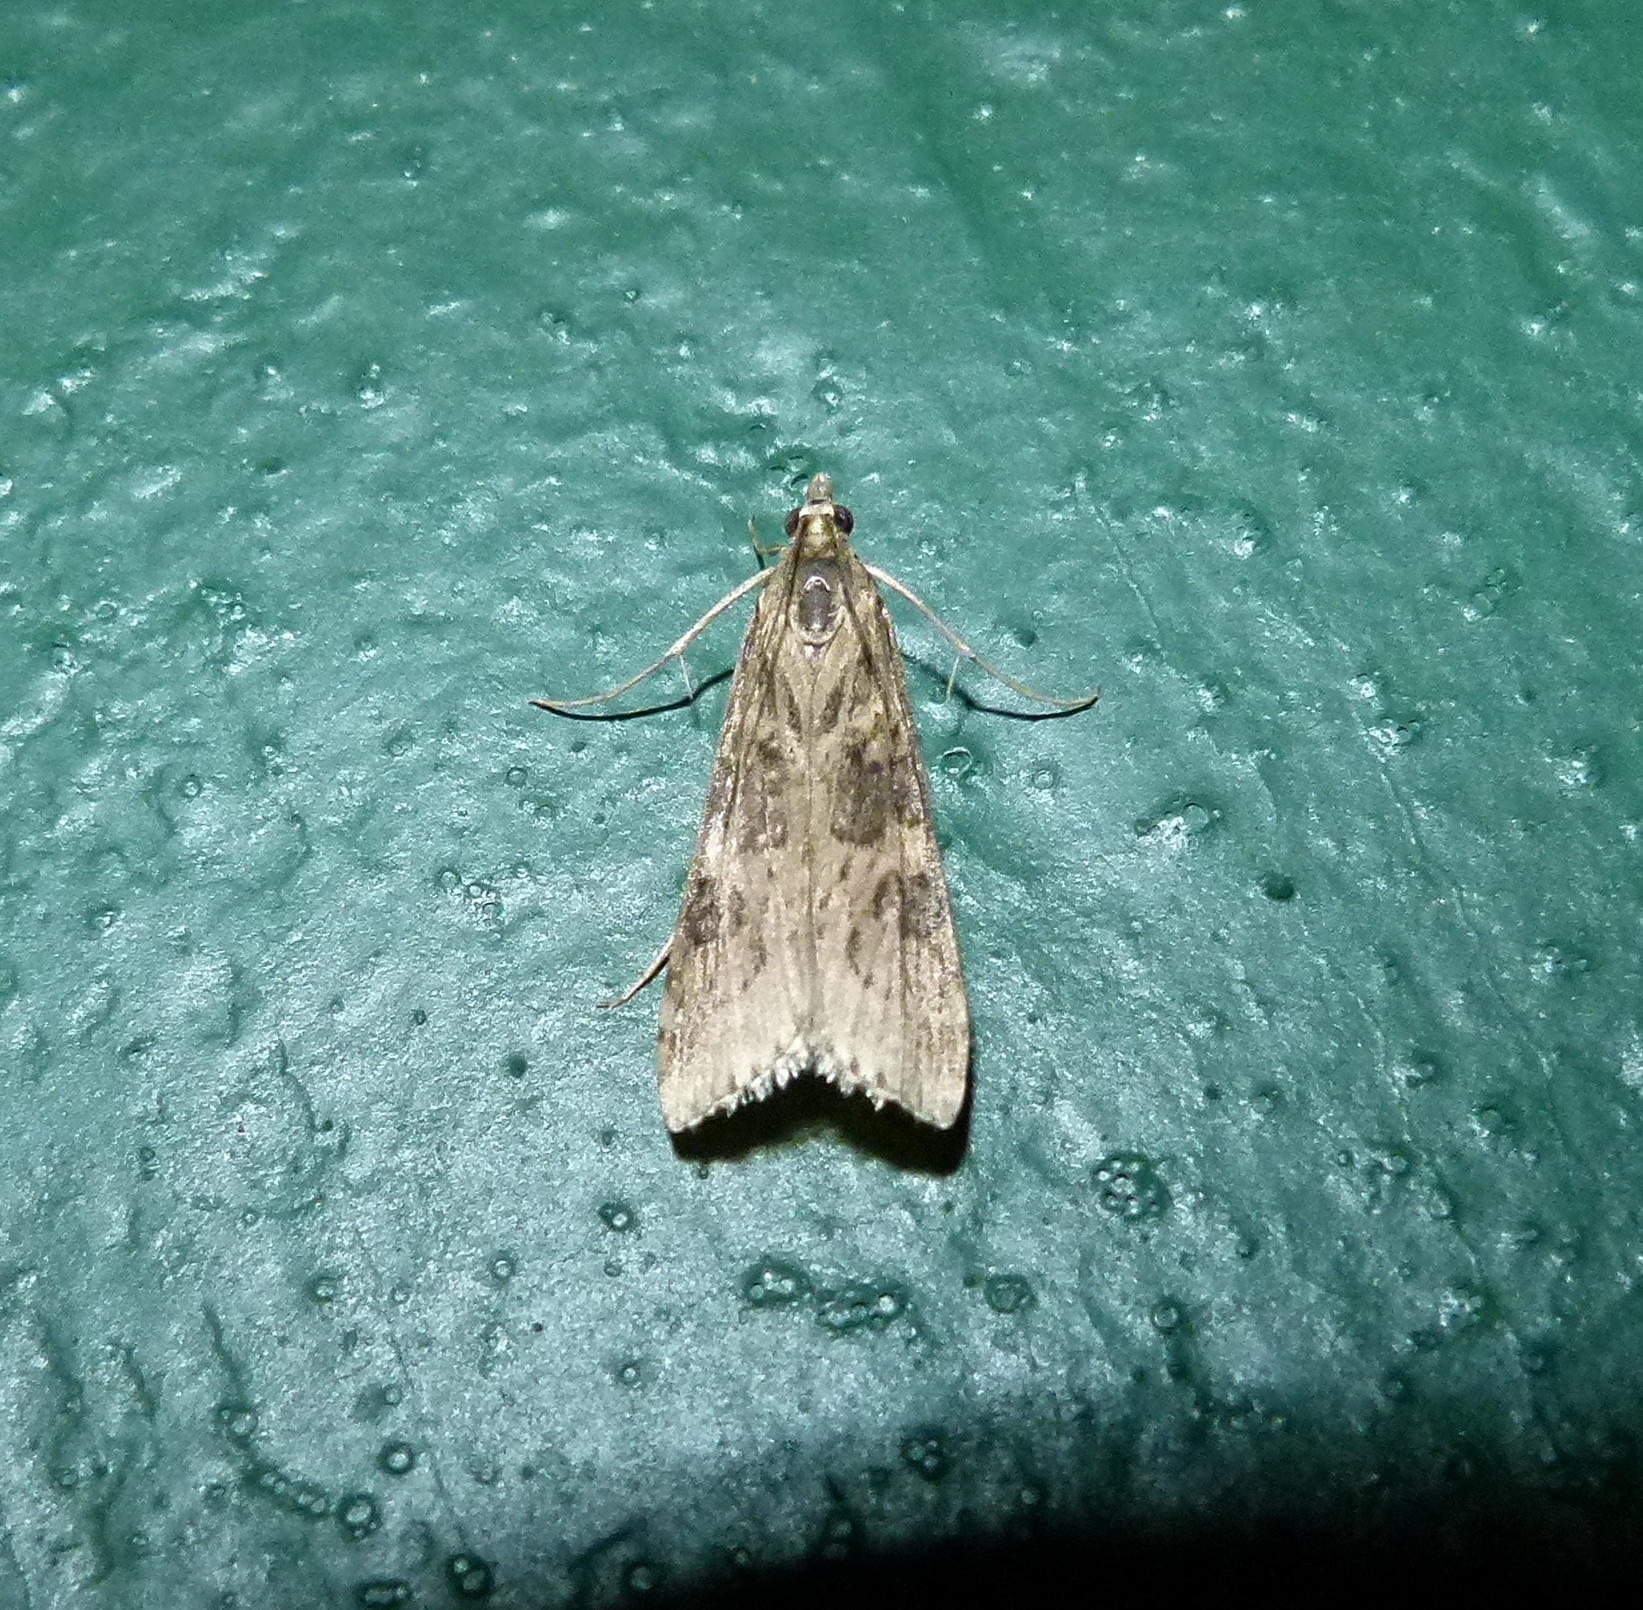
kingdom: Animalia
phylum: Arthropoda
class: Insecta
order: Lepidoptera
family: Crambidae
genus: Nomophila
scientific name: Nomophila nearctica
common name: American rush veneer
